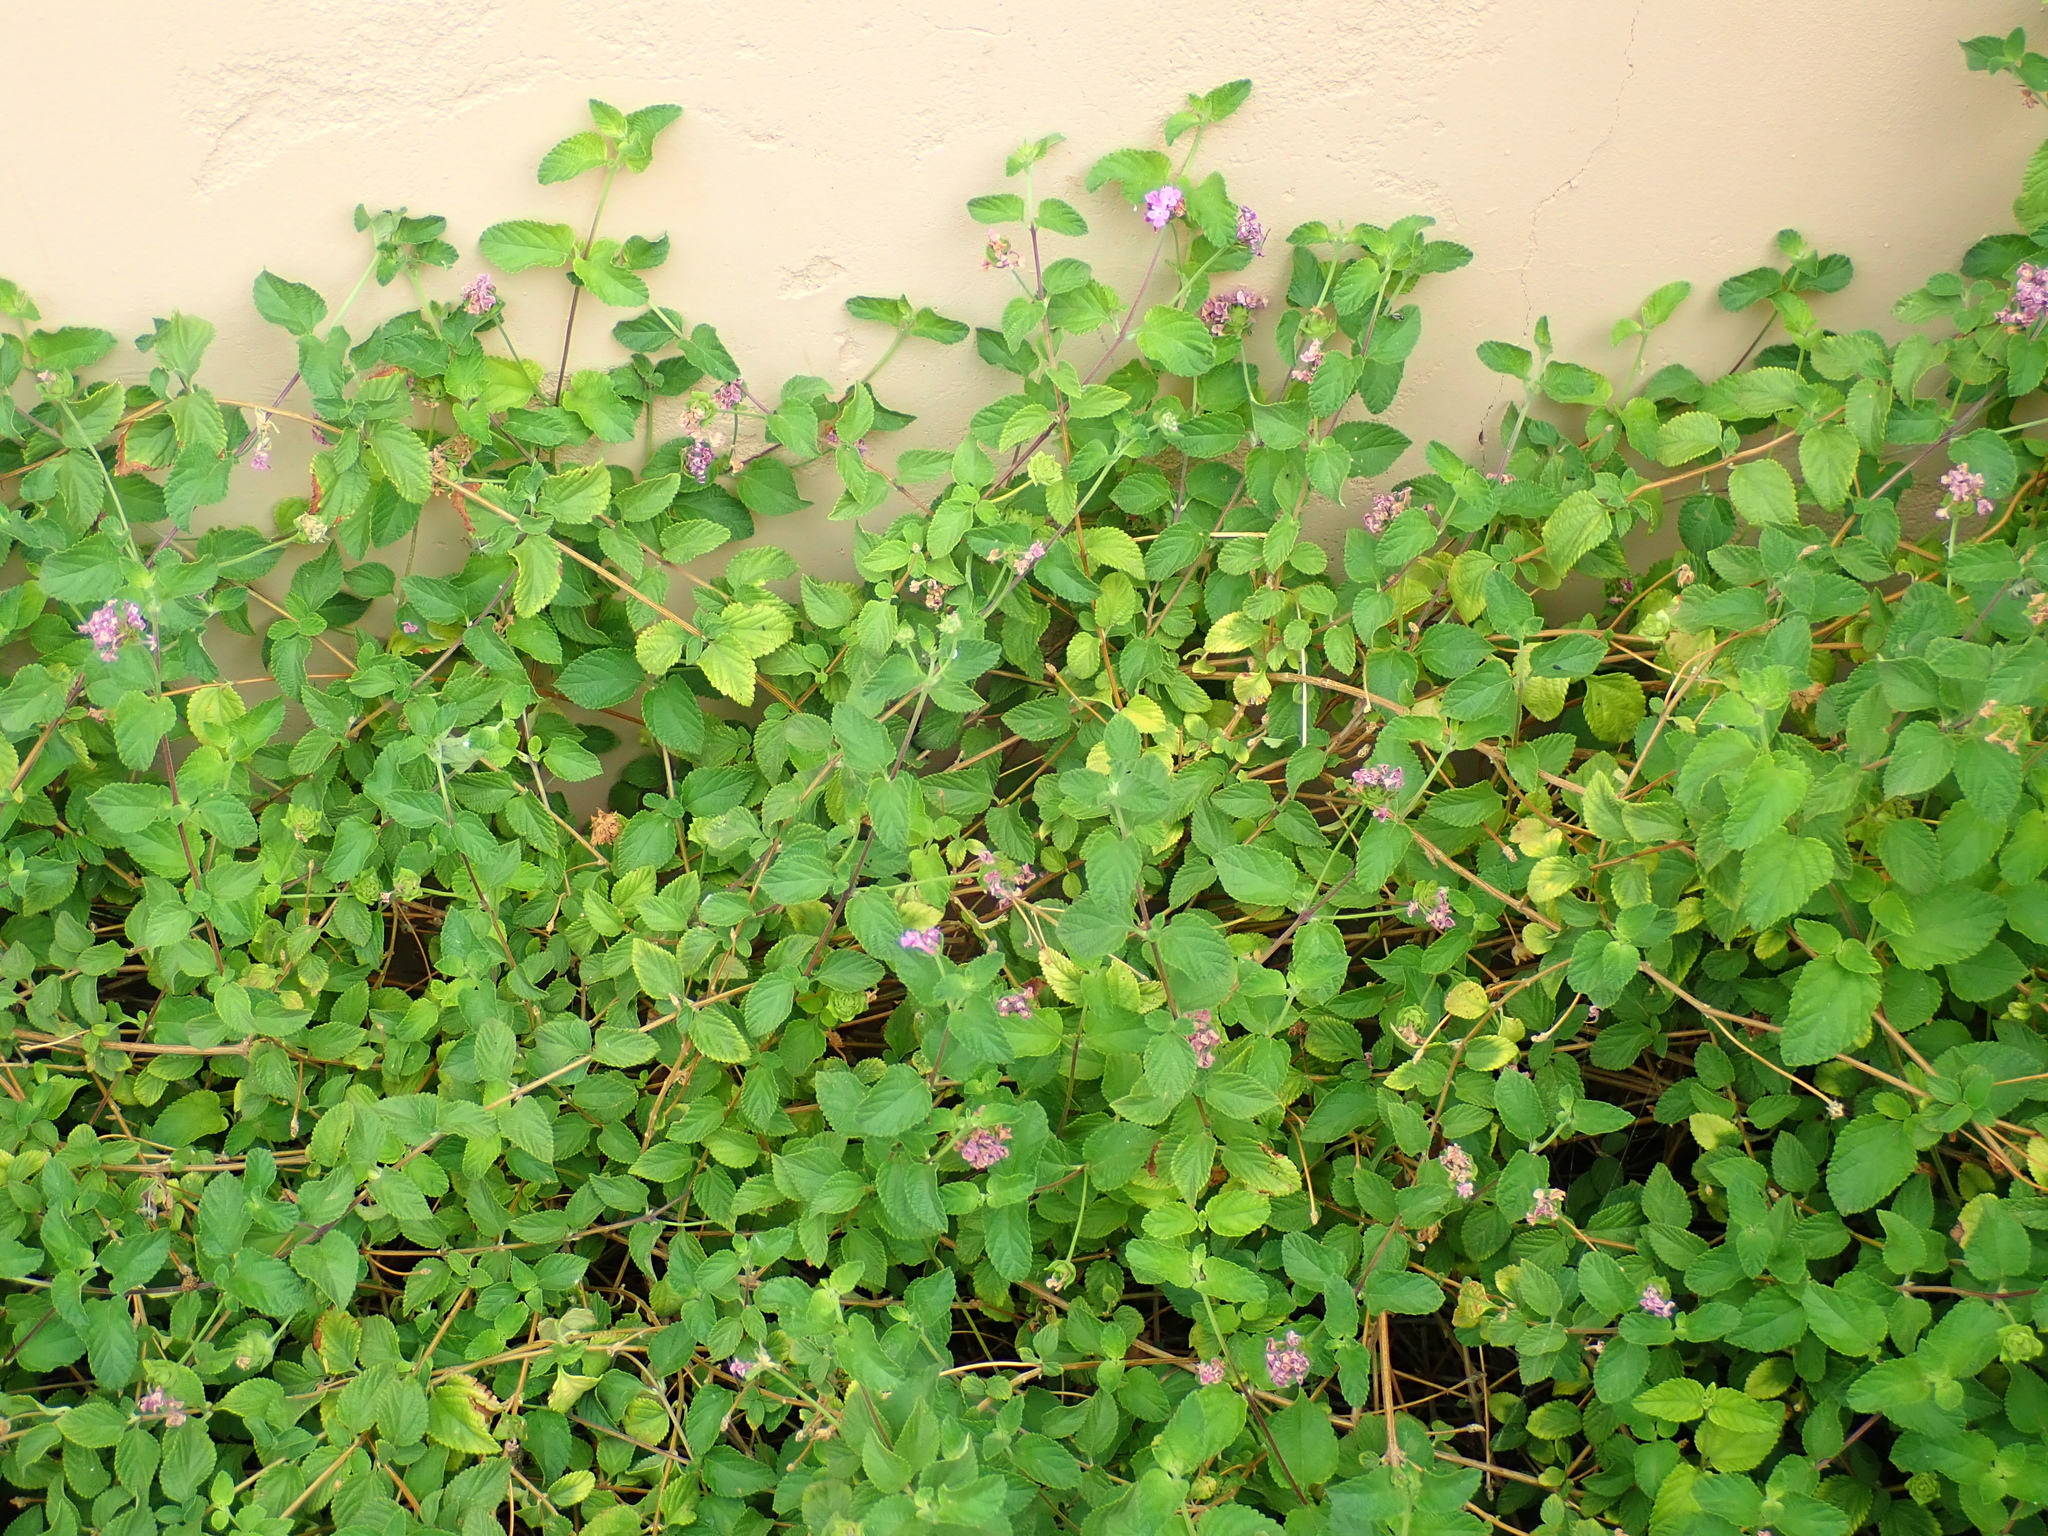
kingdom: Plantae
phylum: Tracheophyta
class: Magnoliopsida
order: Lamiales
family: Verbenaceae
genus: Lantana
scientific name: Lantana montevidensis
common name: Trailing shrubverbena
